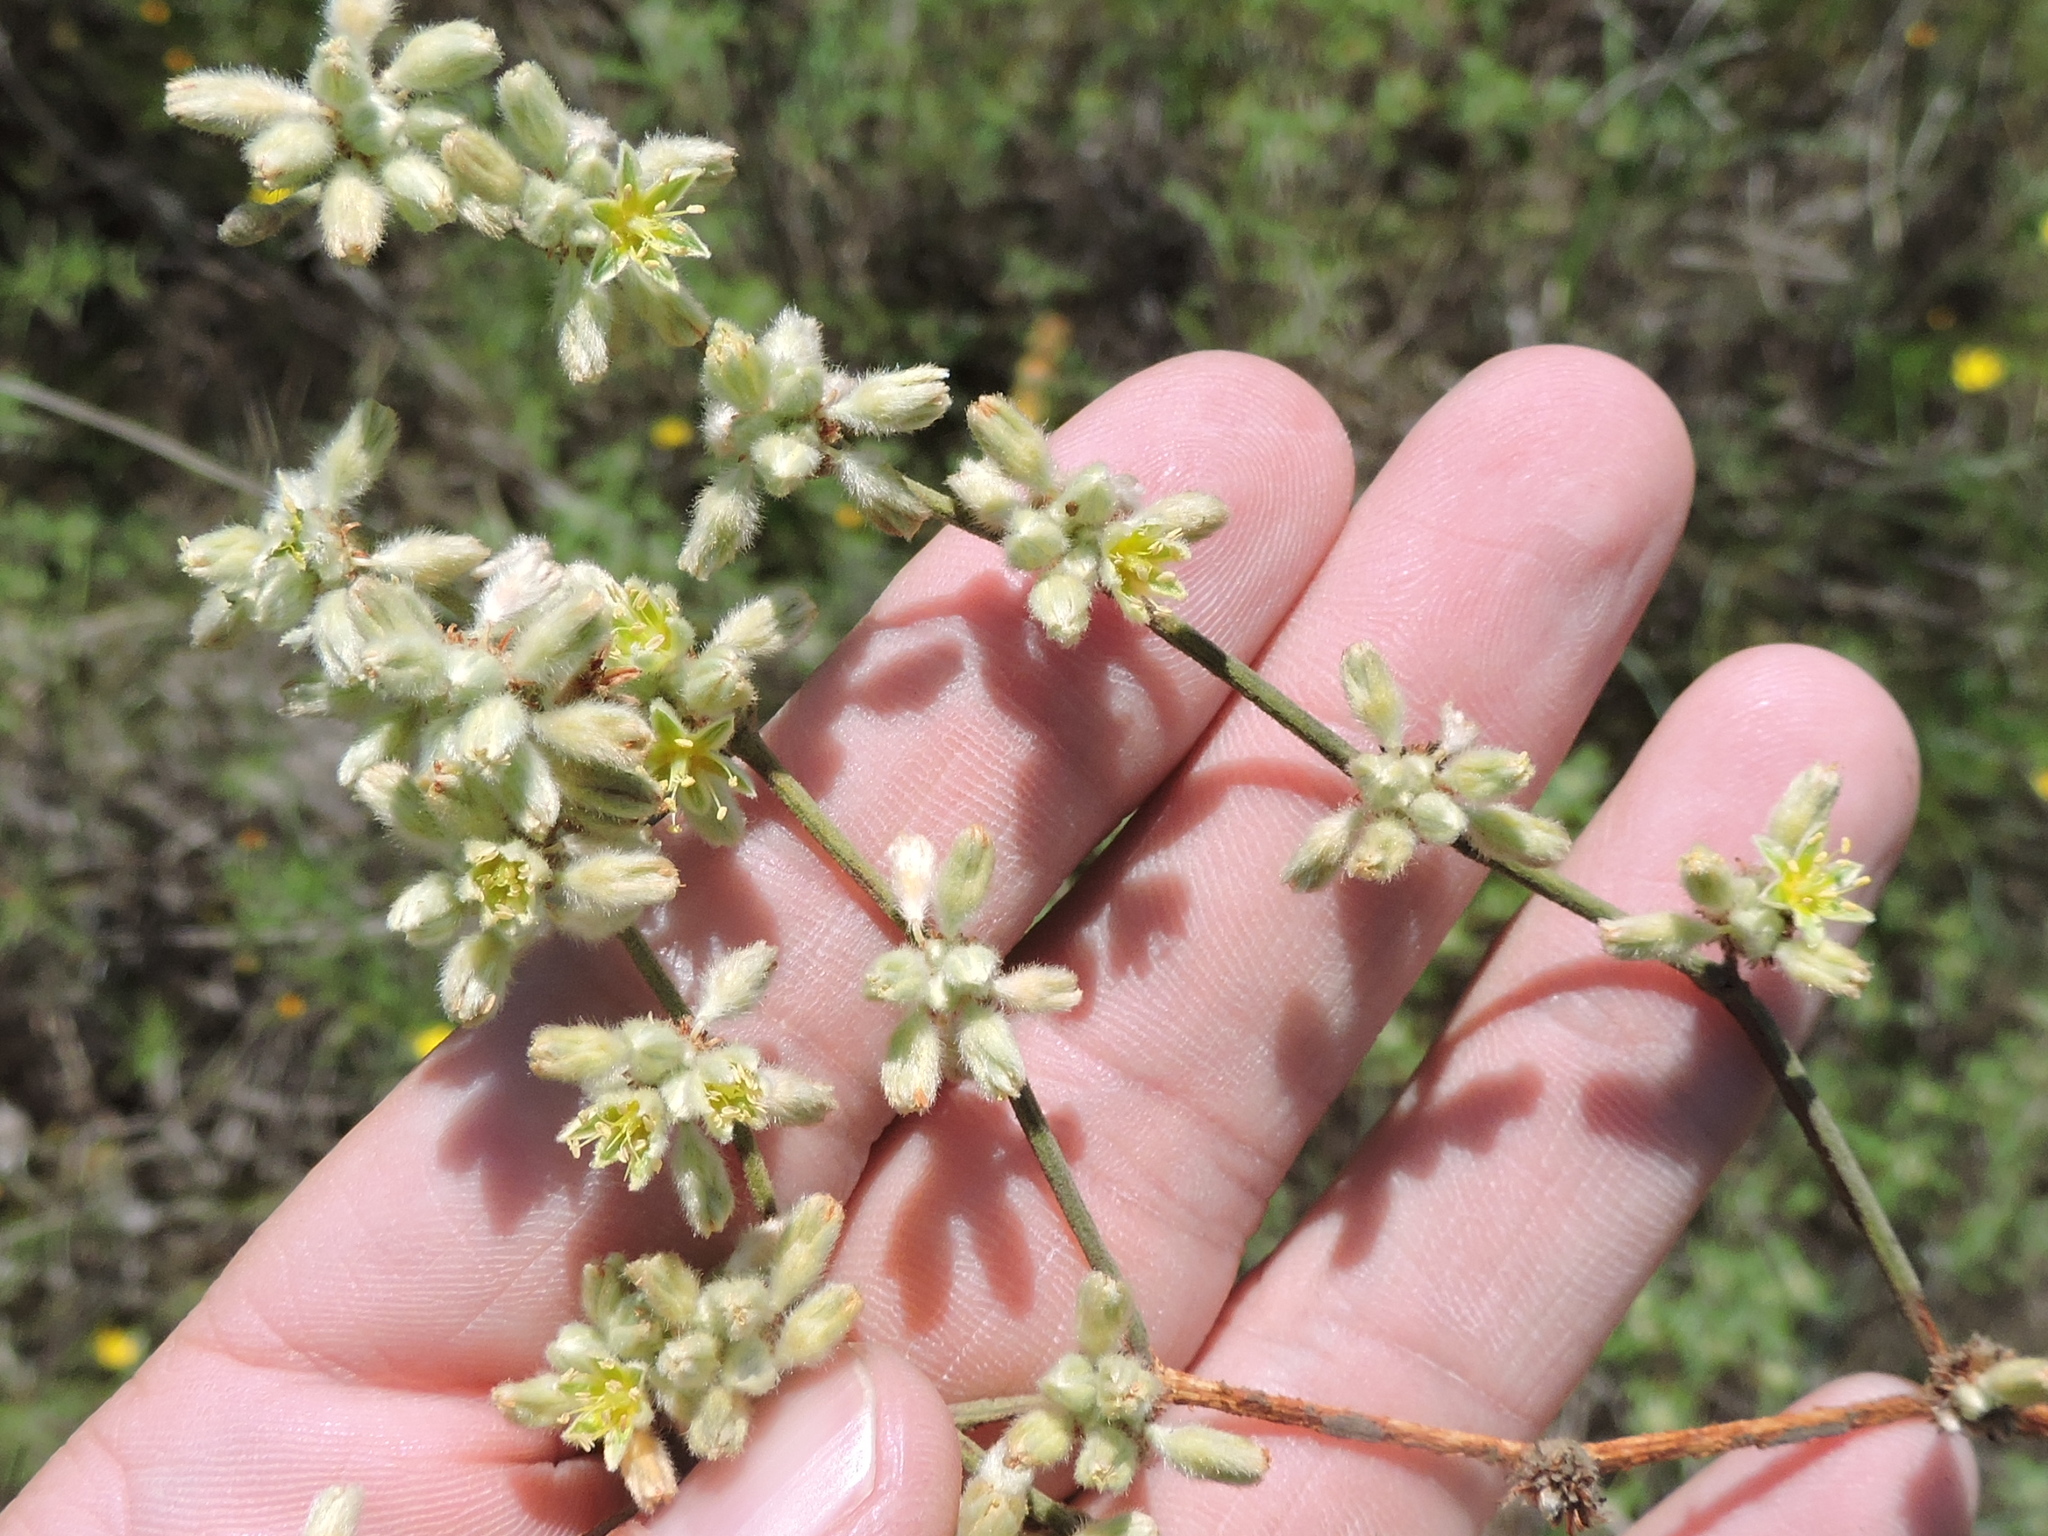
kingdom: Plantae
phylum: Tracheophyta
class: Magnoliopsida
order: Caryophyllales
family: Polygonaceae
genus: Eriogonum
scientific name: Eriogonum longifolium
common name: Longleaf wild buckwheat
